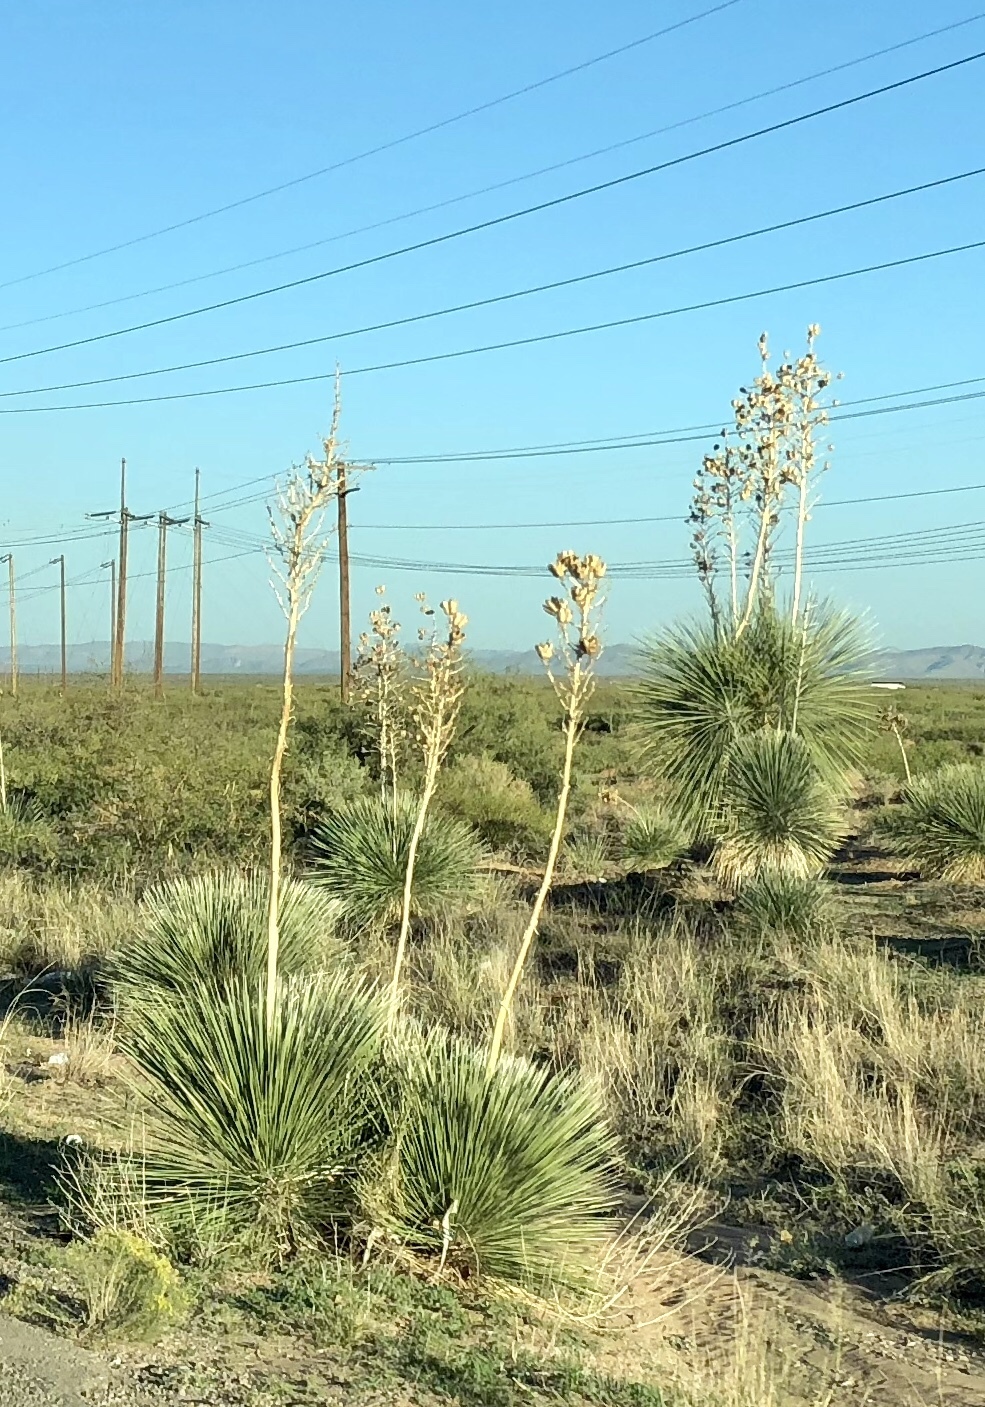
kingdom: Plantae
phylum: Tracheophyta
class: Liliopsida
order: Asparagales
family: Asparagaceae
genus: Yucca
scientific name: Yucca elata
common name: Palmella
